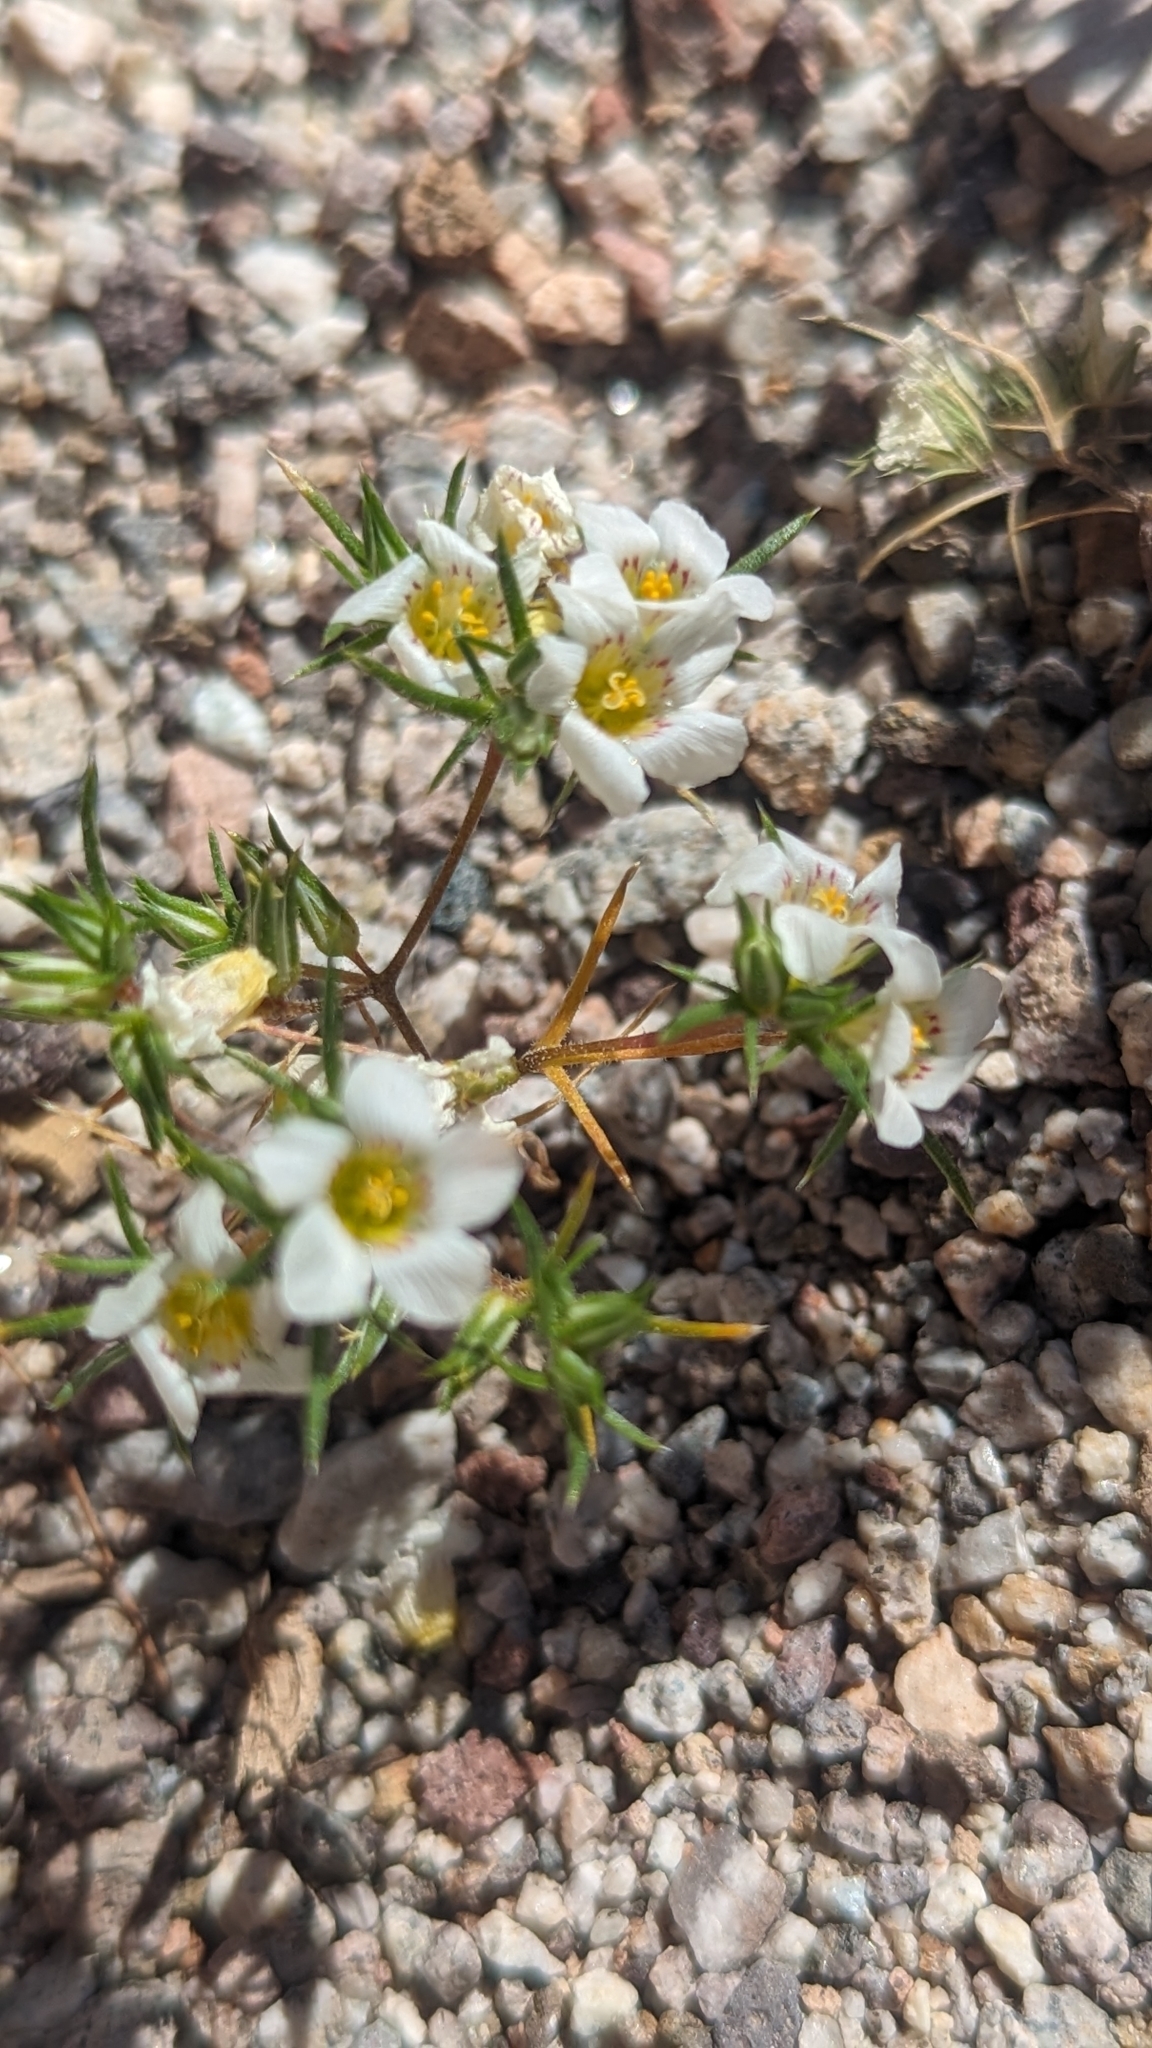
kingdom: Plantae
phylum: Tracheophyta
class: Magnoliopsida
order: Ericales
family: Polemoniaceae
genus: Linanthus
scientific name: Linanthus demissus
